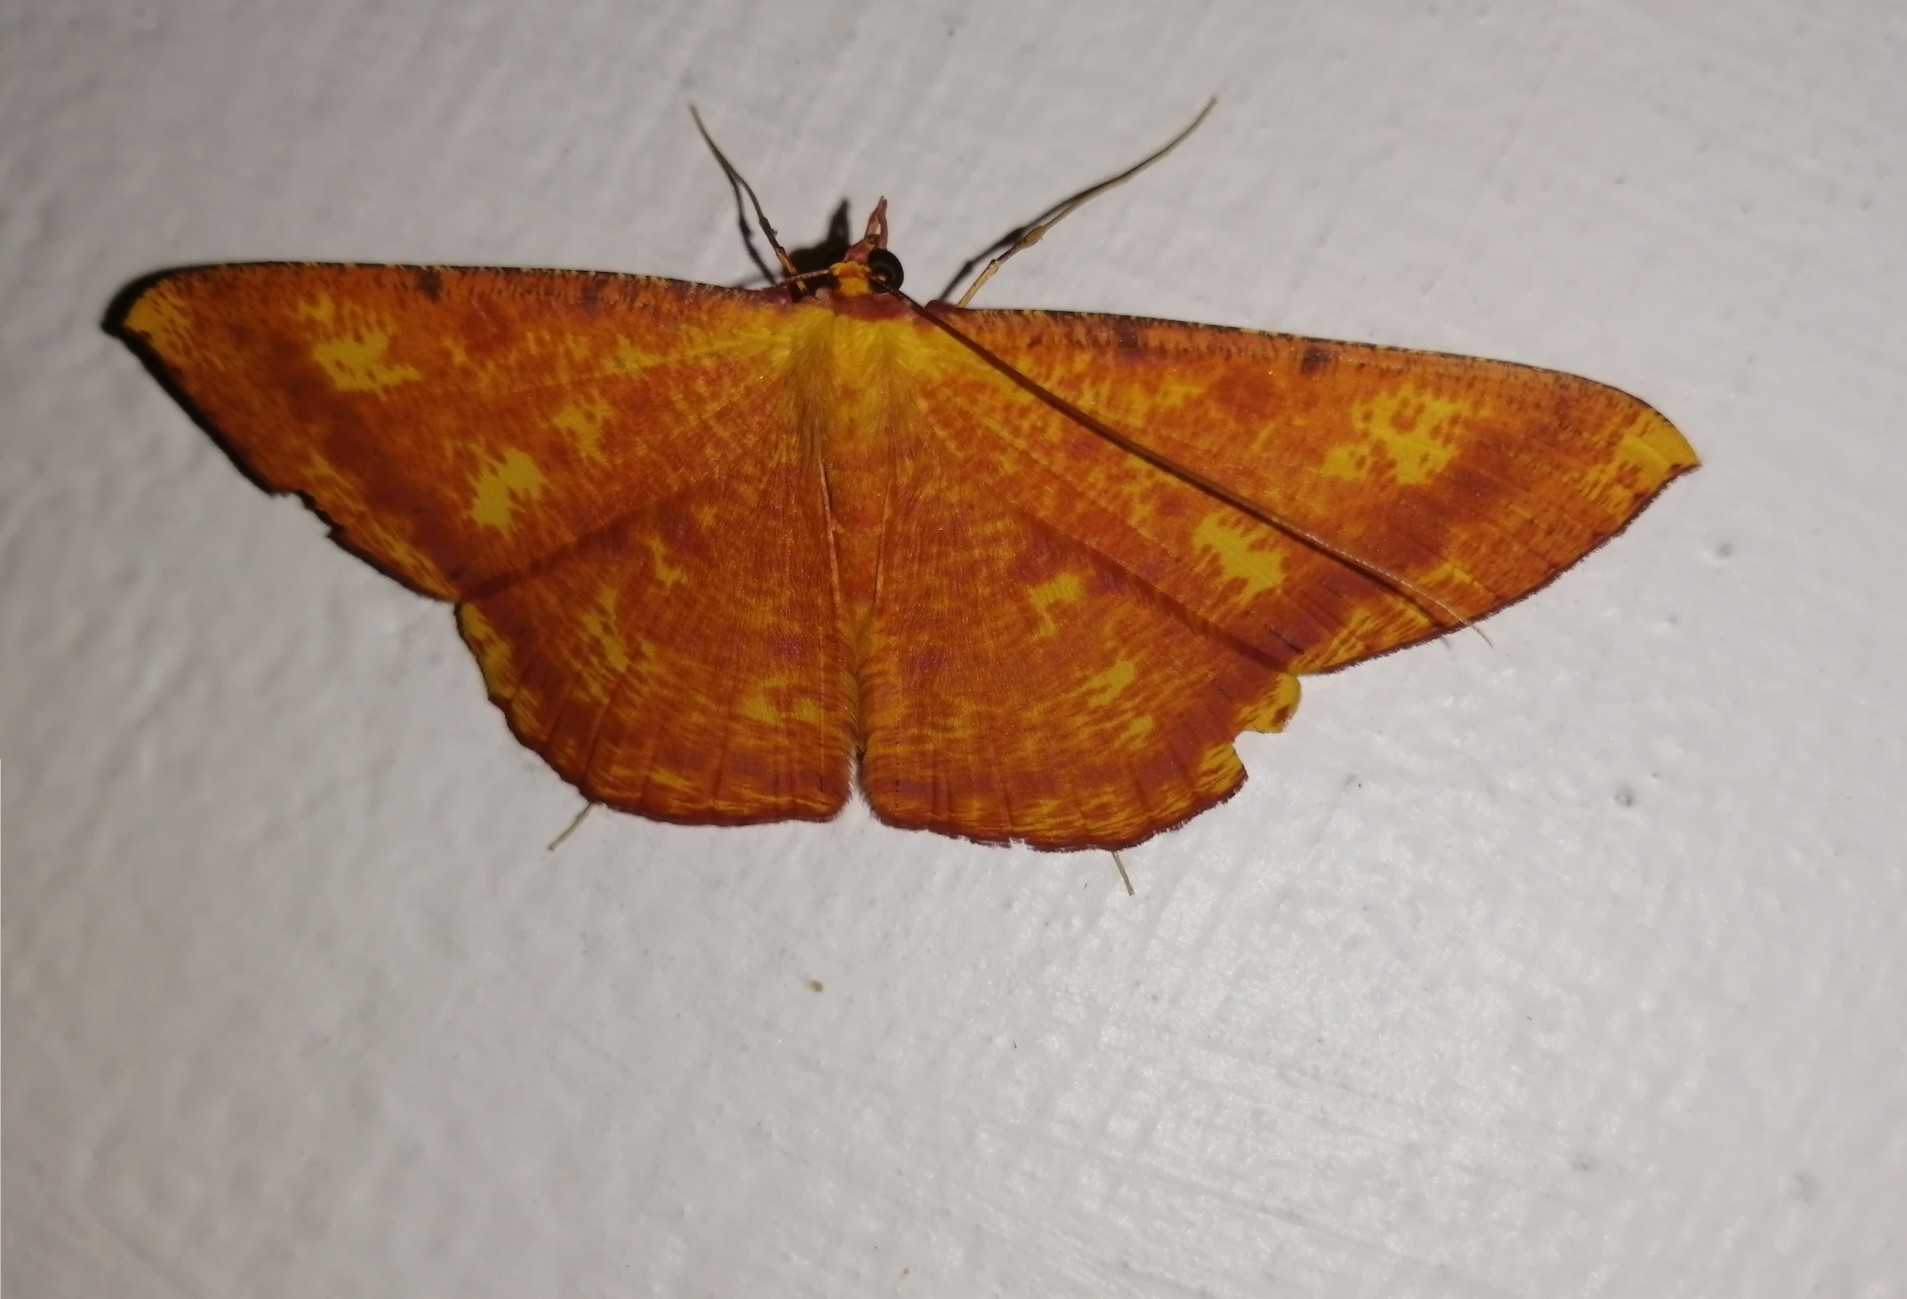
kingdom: Animalia
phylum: Arthropoda
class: Insecta
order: Lepidoptera
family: Geometridae
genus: Eumelea
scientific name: Eumelea ludovicata
